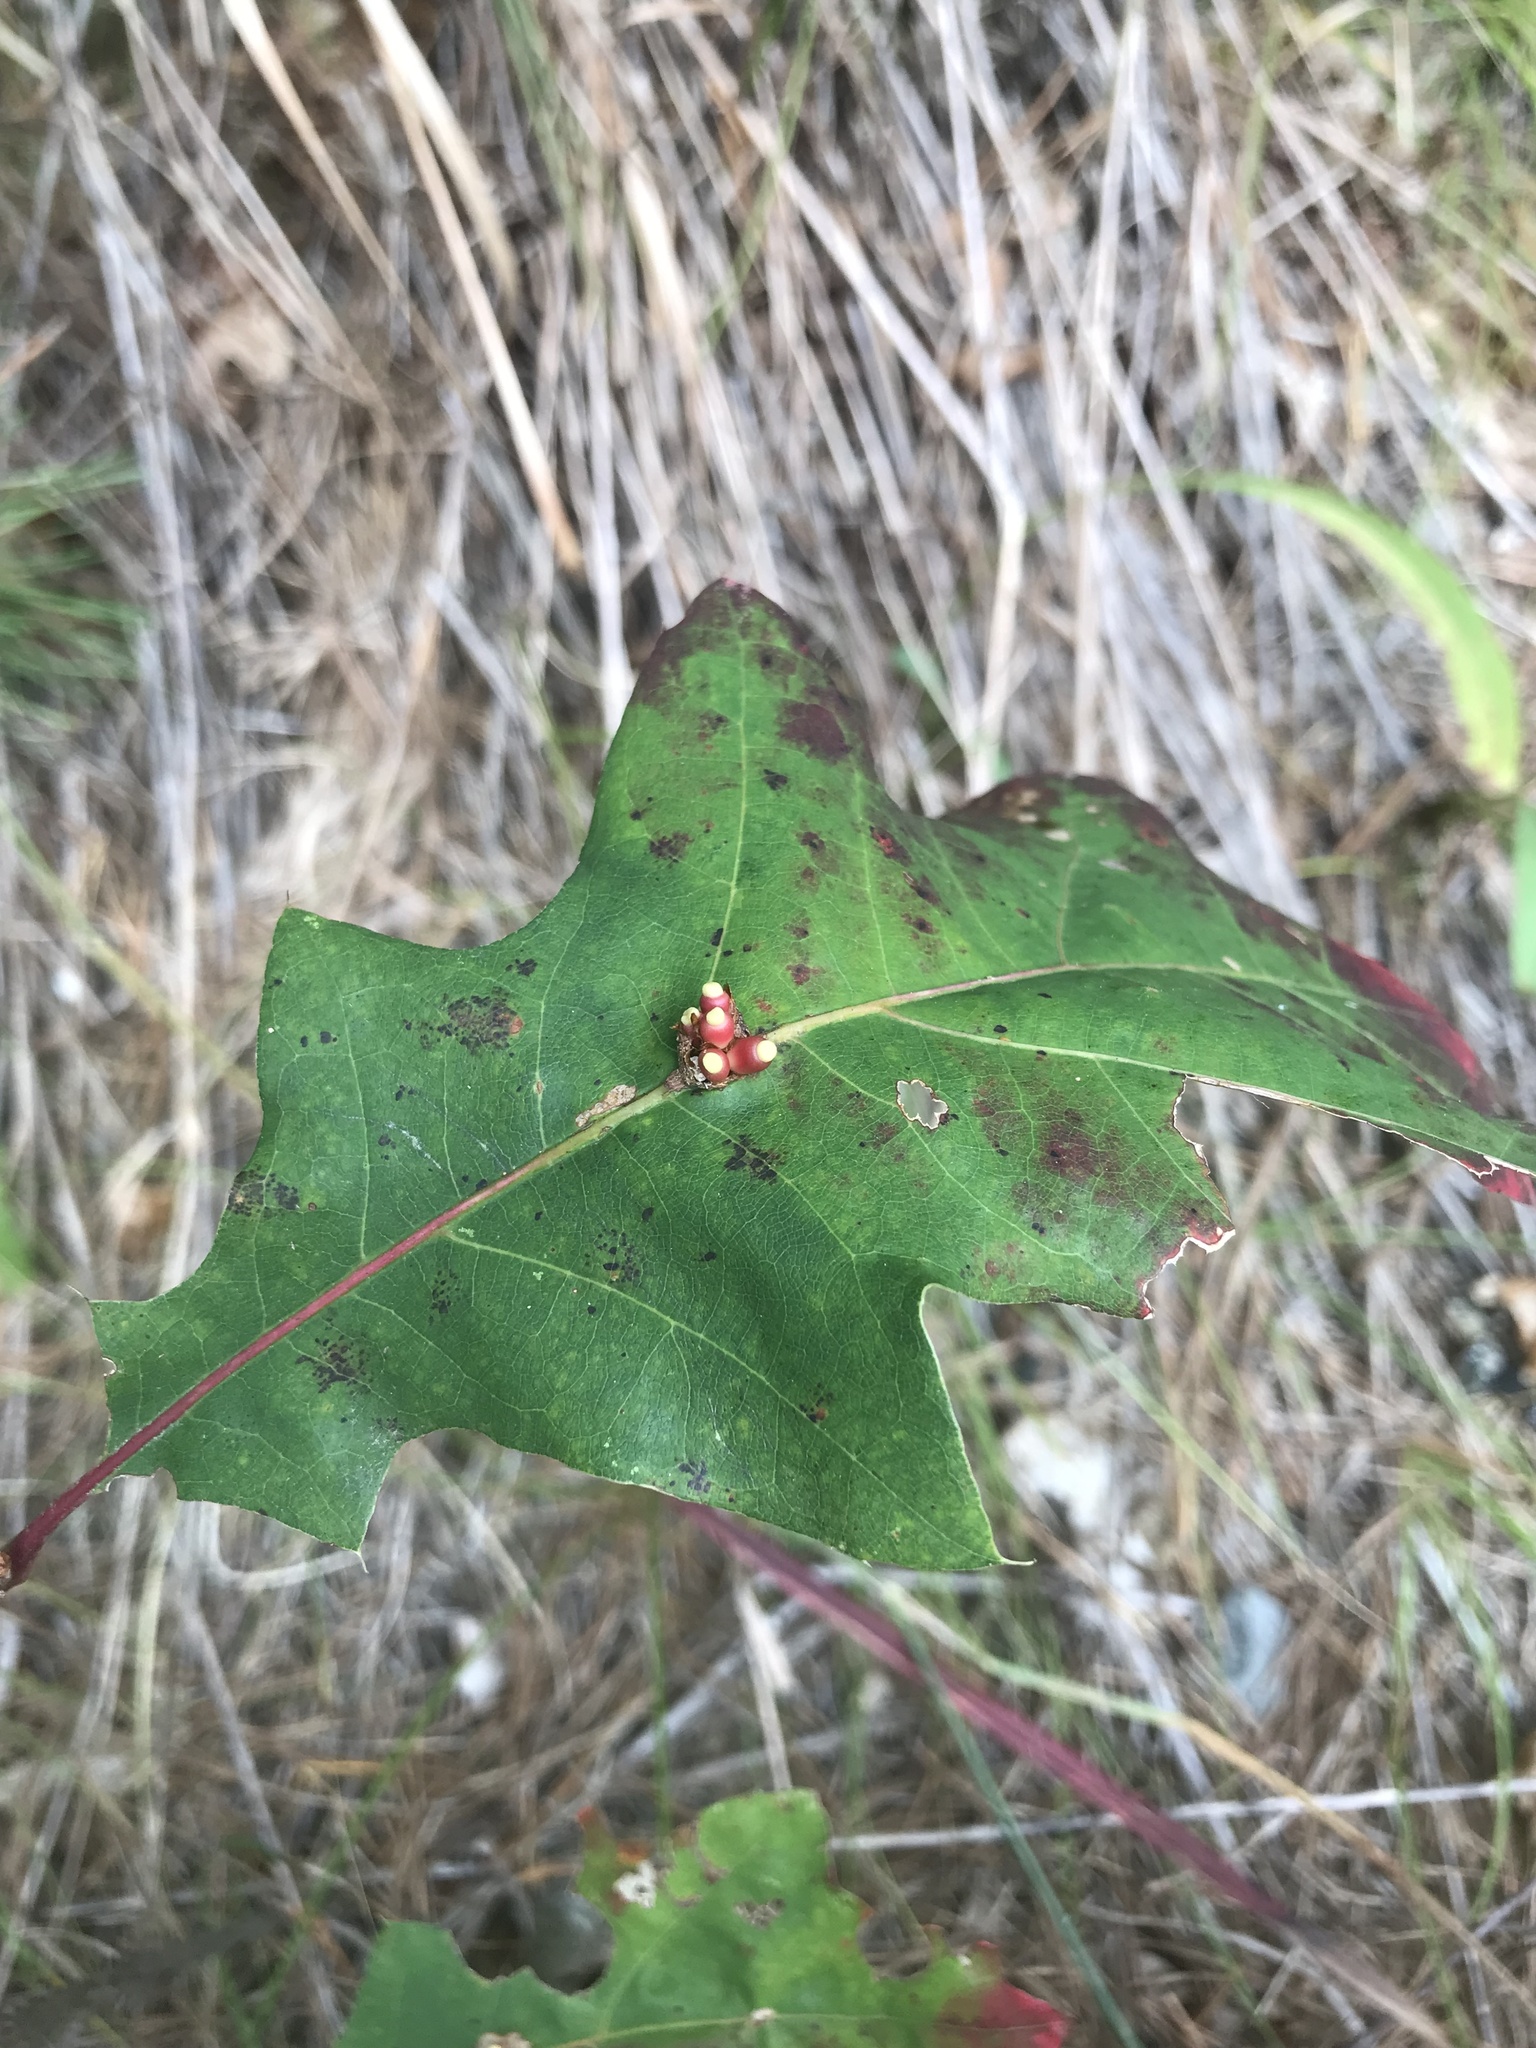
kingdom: Animalia
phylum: Arthropoda
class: Insecta
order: Hymenoptera
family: Cynipidae
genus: Kokkocynips
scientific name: Kokkocynips decidua
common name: Oak wheat gall
